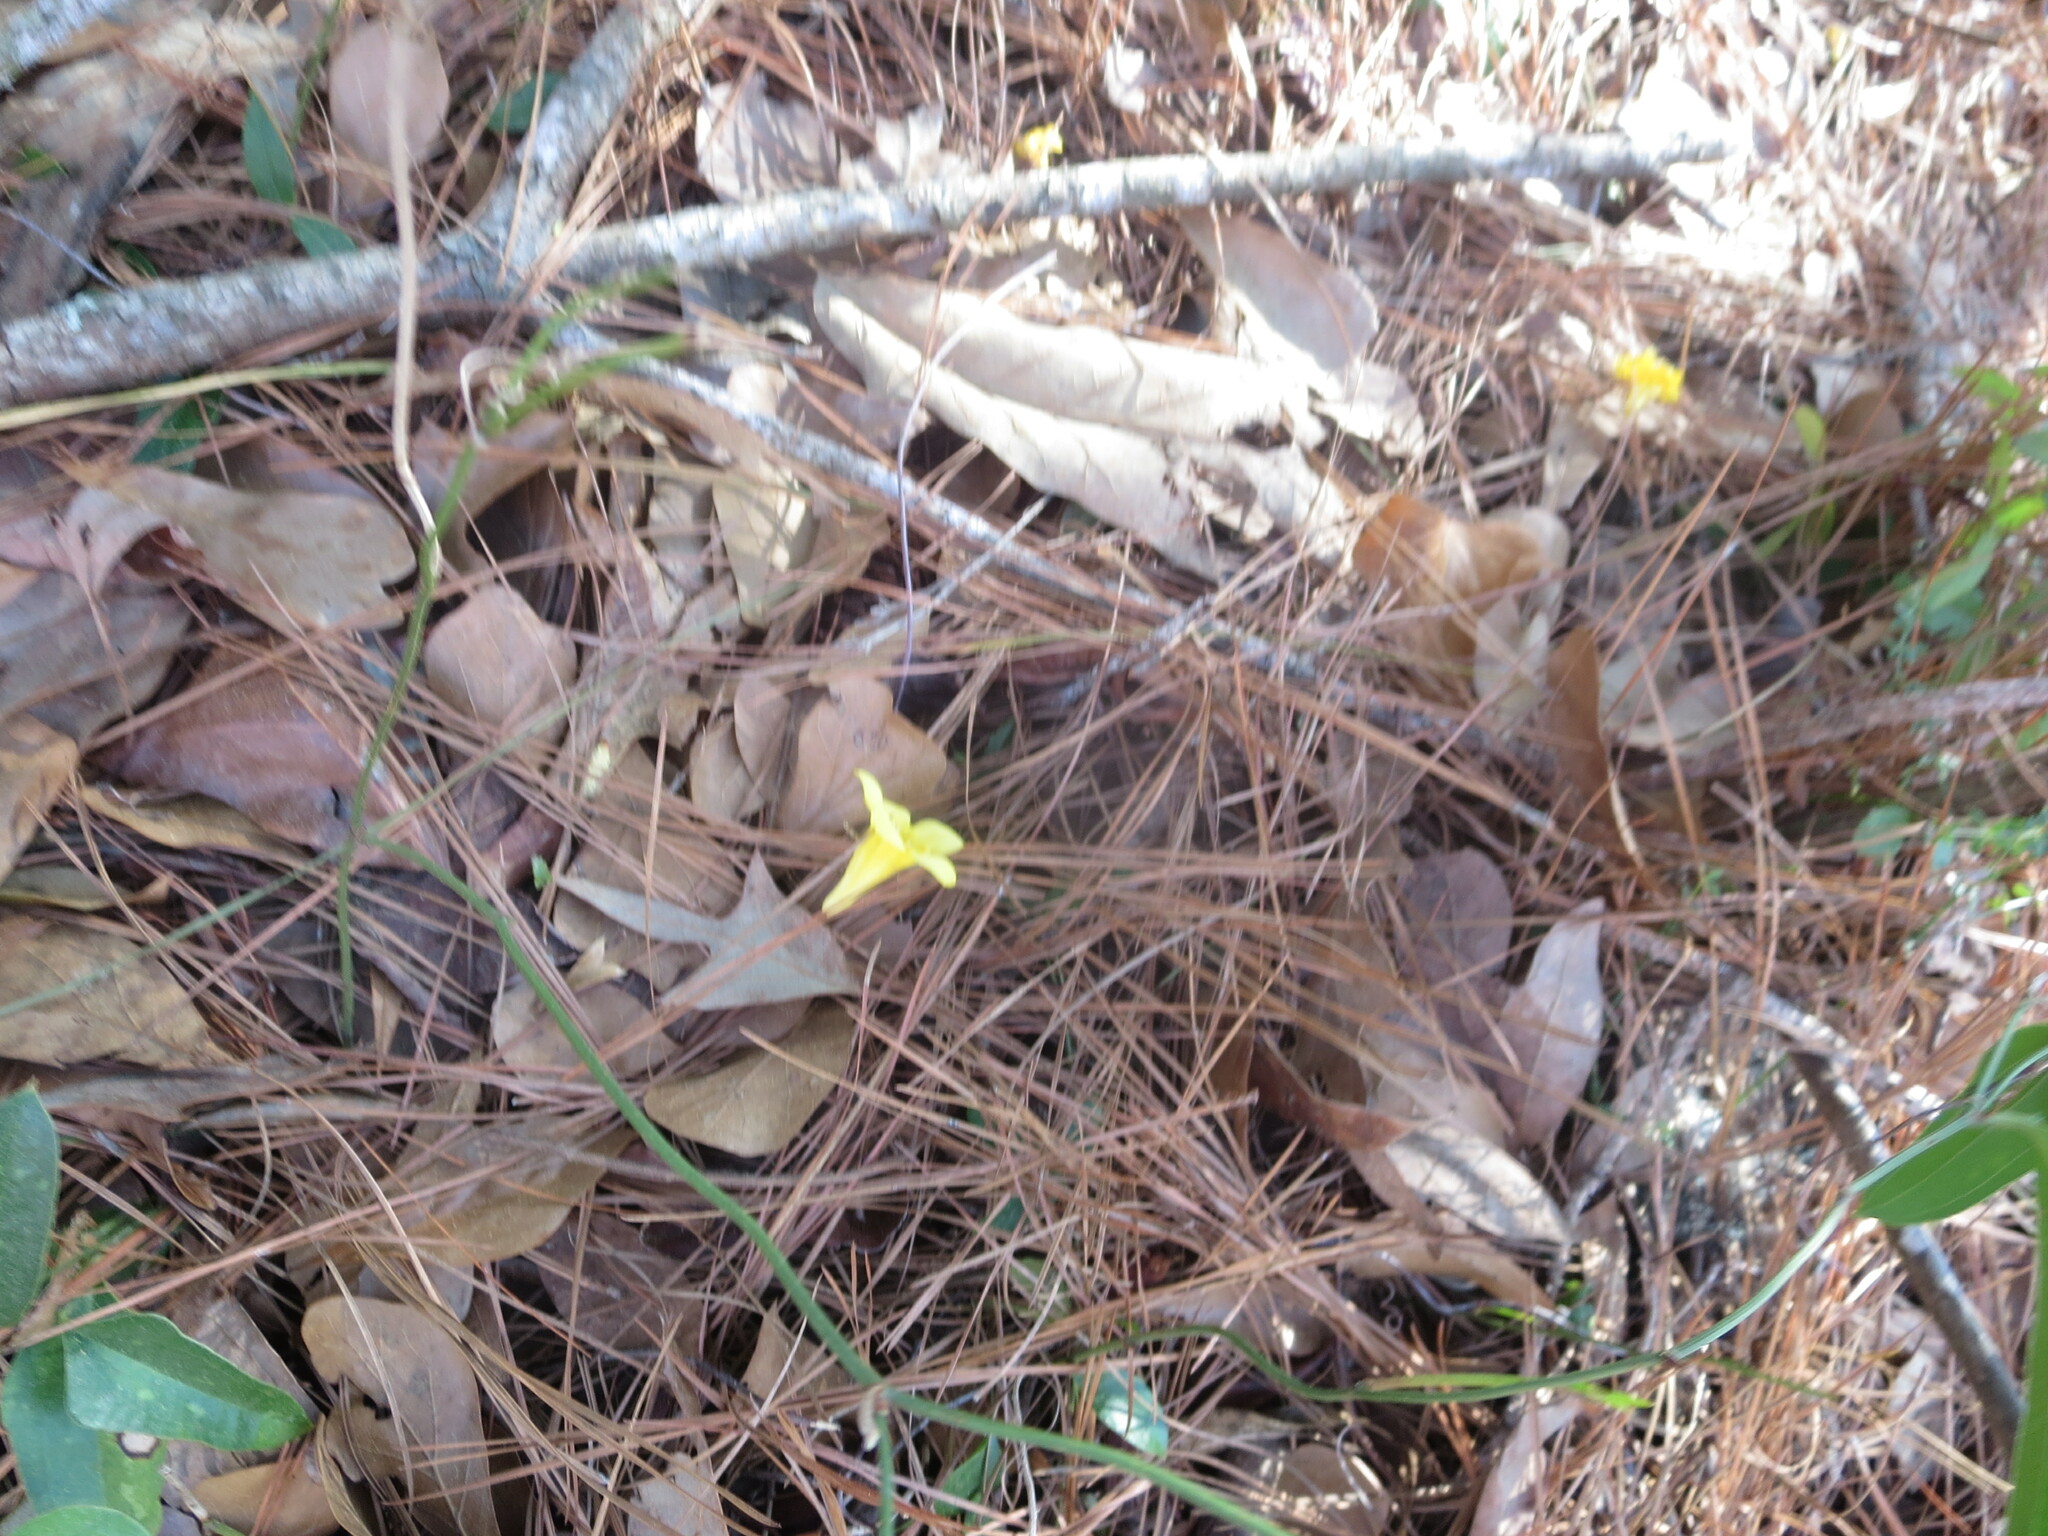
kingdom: Plantae
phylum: Tracheophyta
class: Magnoliopsida
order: Gentianales
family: Gelsemiaceae
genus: Gelsemium
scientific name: Gelsemium sempervirens
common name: Carolina-jasmine
